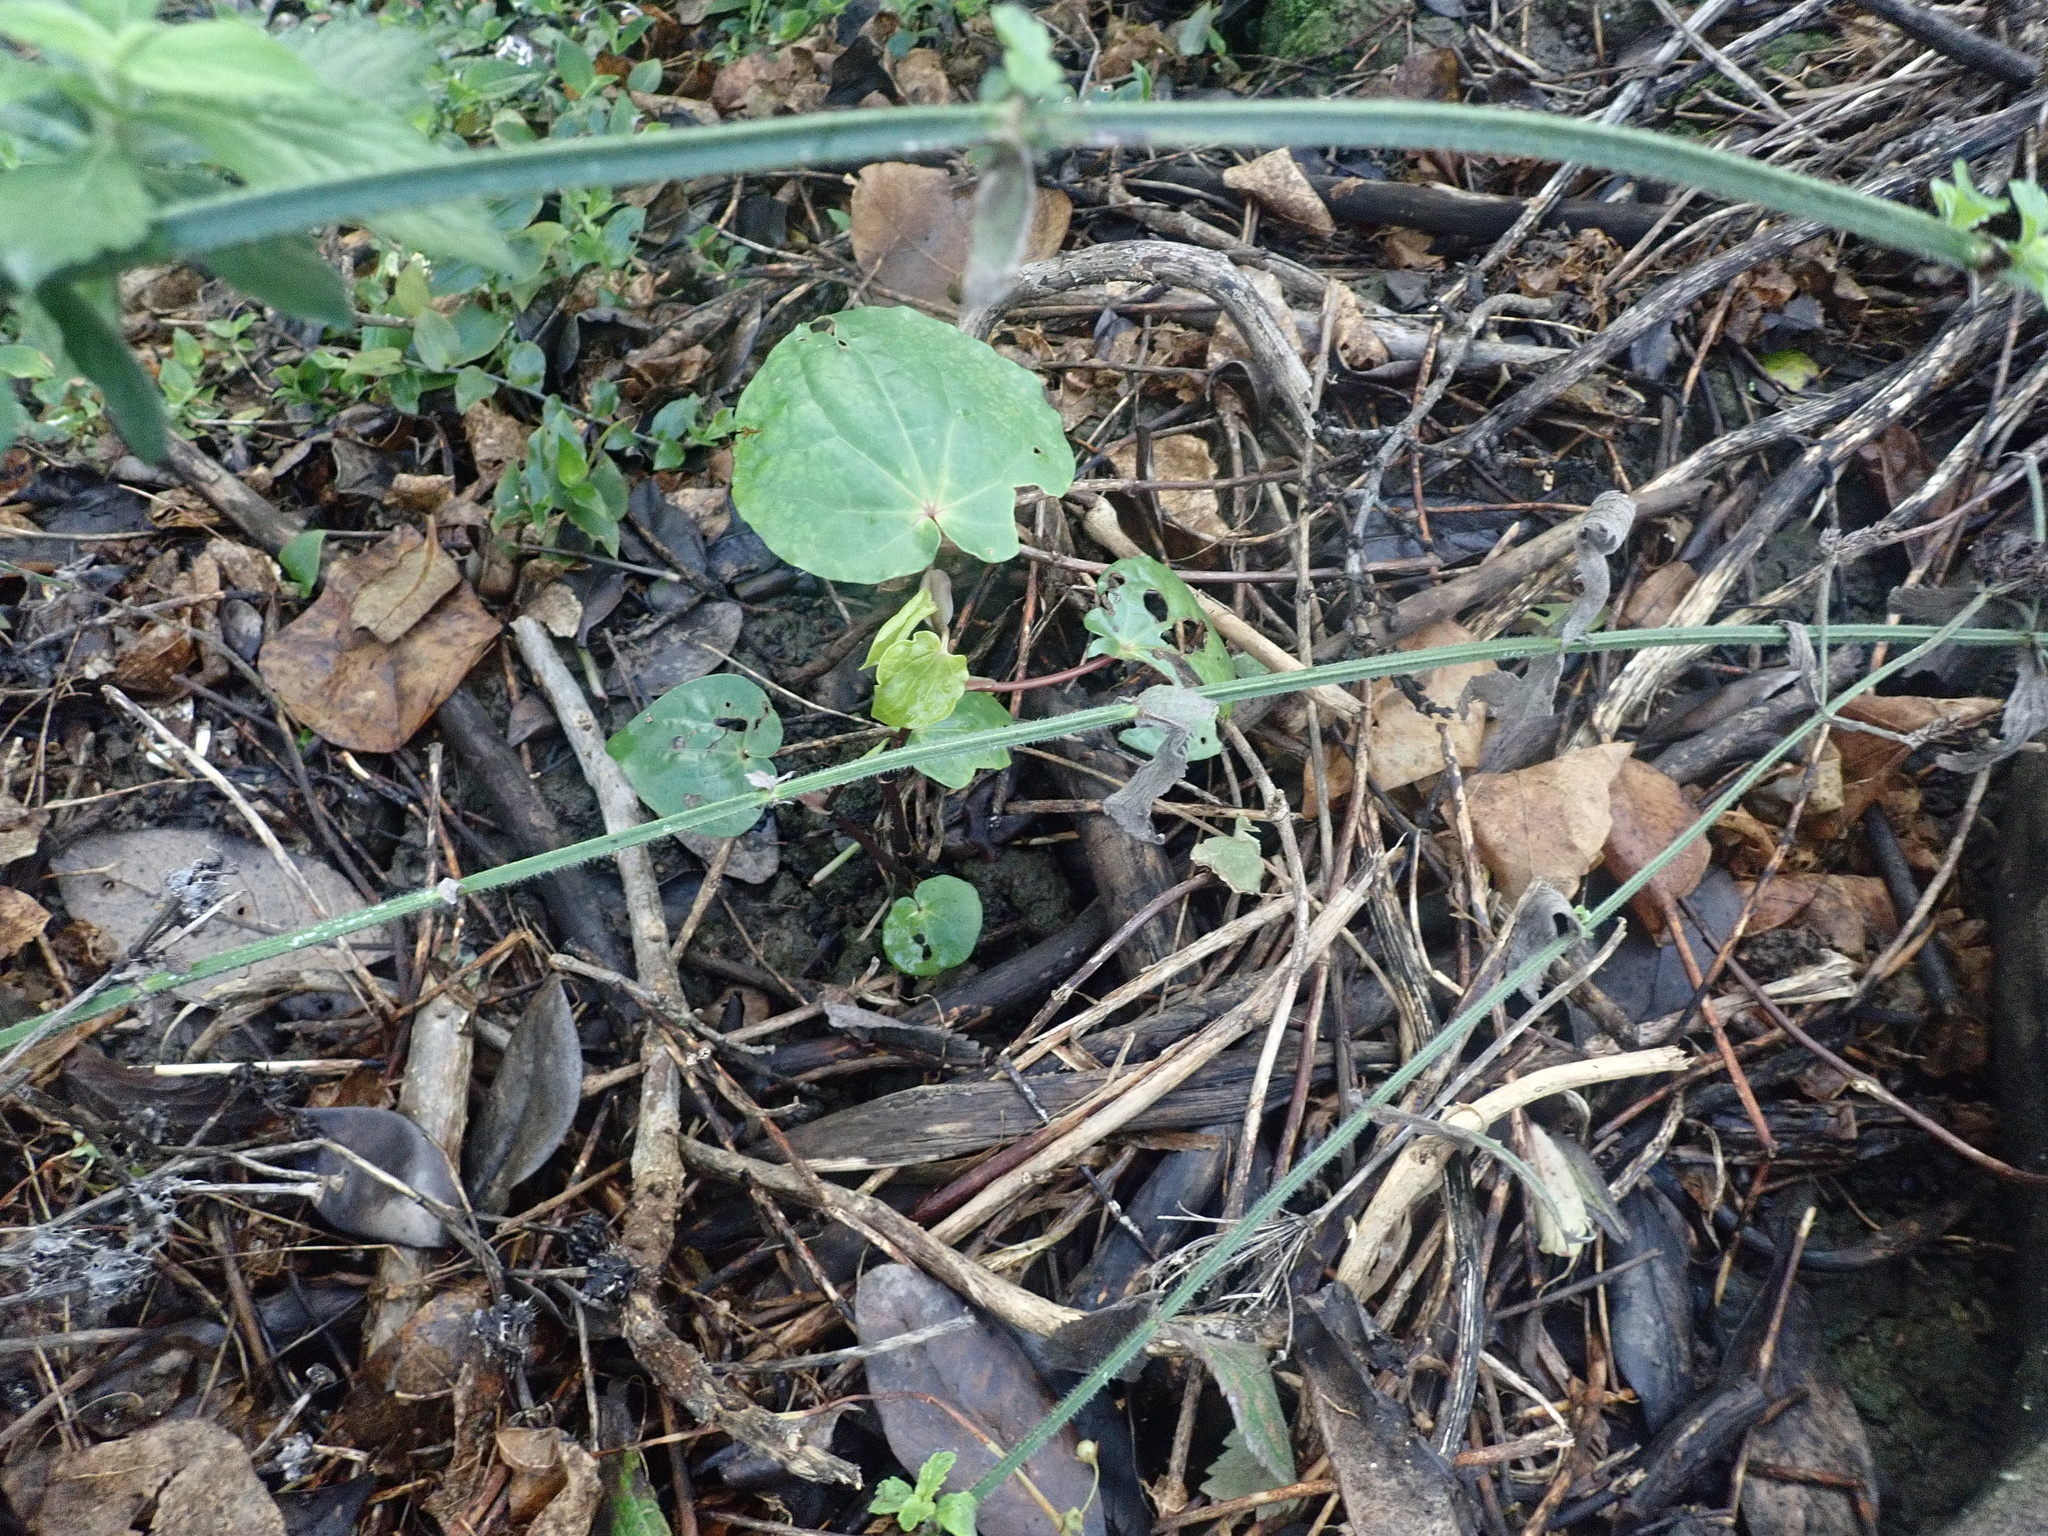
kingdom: Plantae
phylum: Tracheophyta
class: Magnoliopsida
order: Piperales
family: Piperaceae
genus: Macropiper
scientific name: Macropiper excelsum
